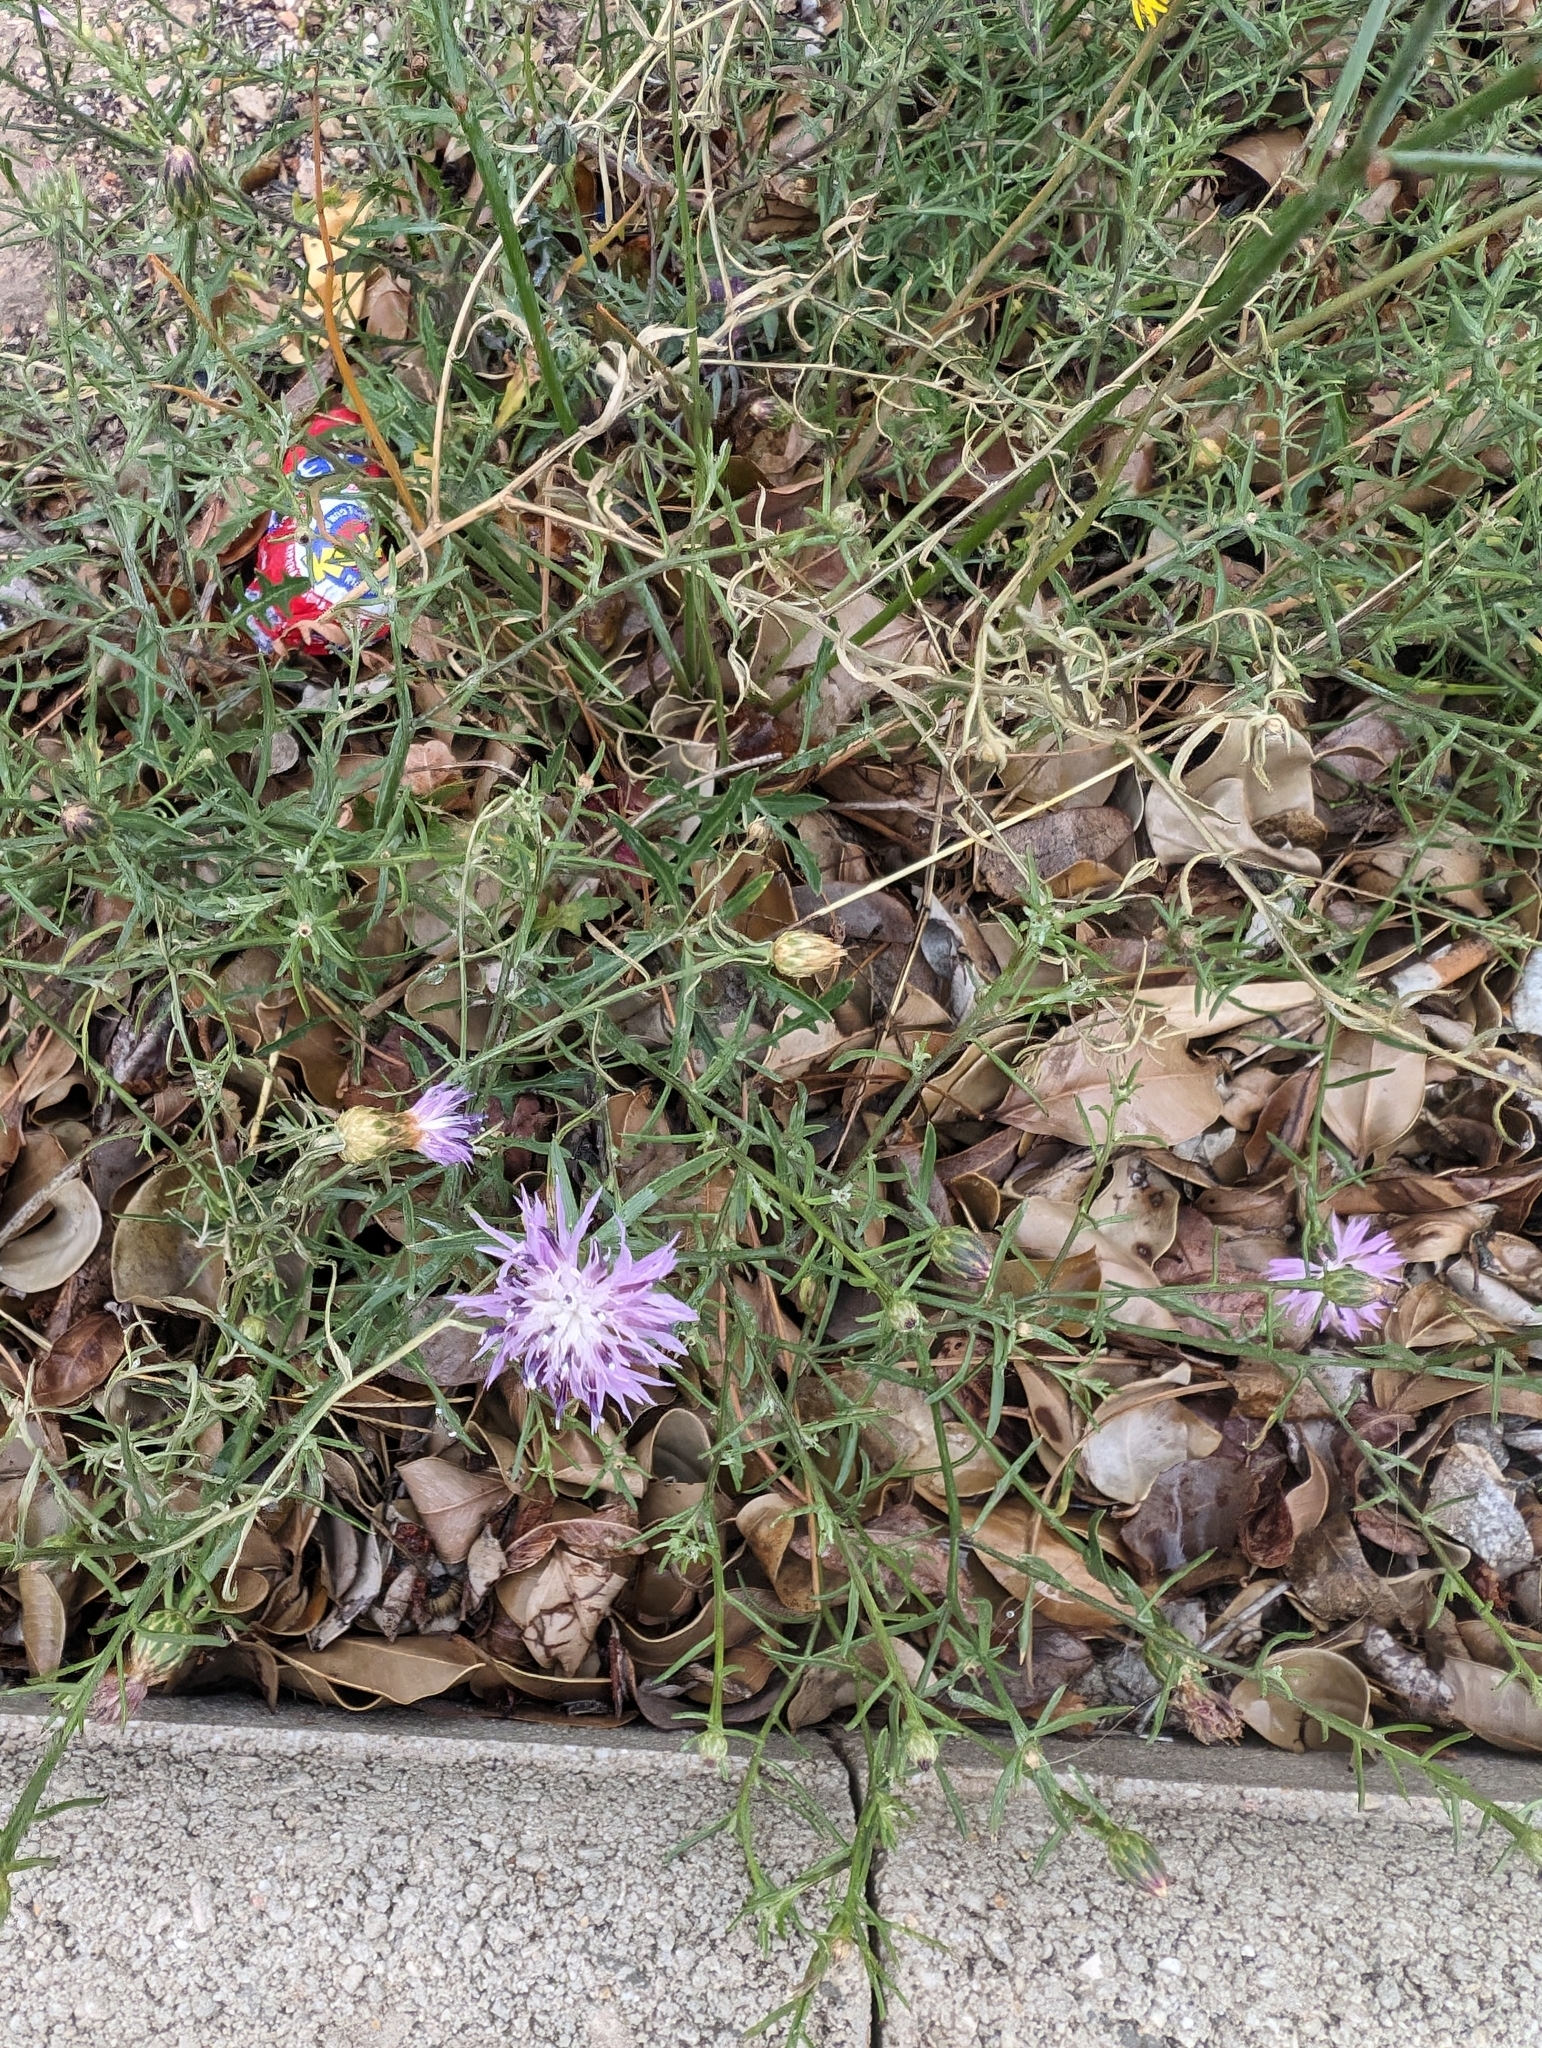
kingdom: Plantae
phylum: Tracheophyta
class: Magnoliopsida
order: Asterales
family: Asteraceae
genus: Centaurea
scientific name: Centaurea aspera
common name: Rough star-thistle
